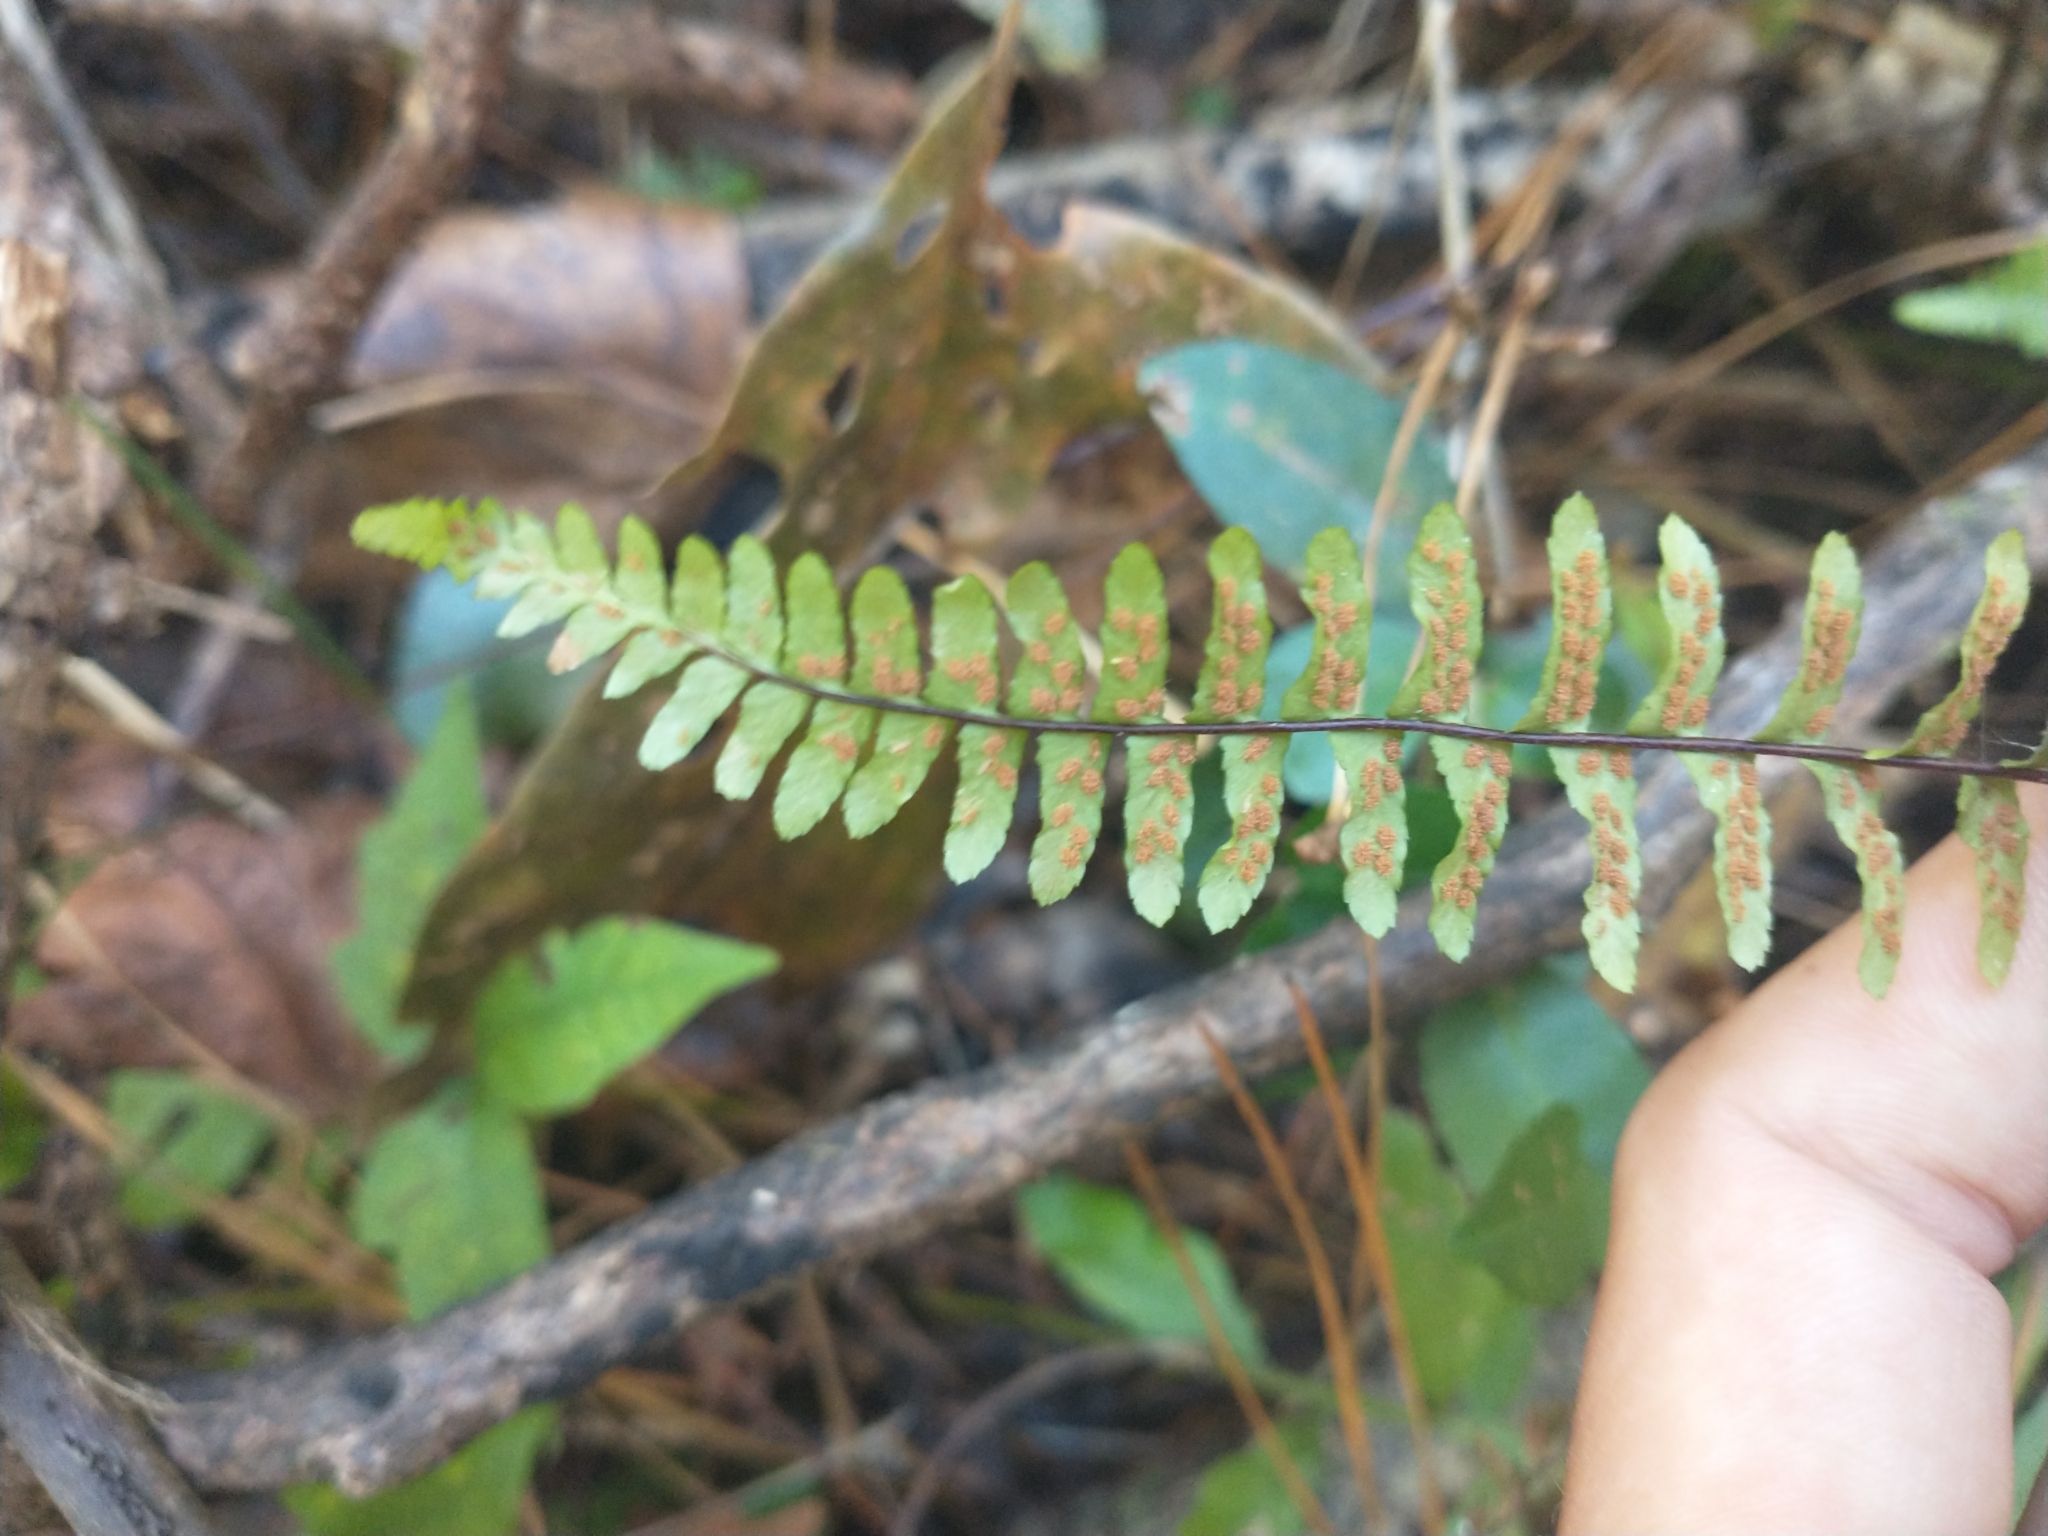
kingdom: Plantae
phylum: Tracheophyta
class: Polypodiopsida
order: Polypodiales
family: Aspleniaceae
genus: Asplenium
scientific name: Asplenium platyneuron
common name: Ebony spleenwort
